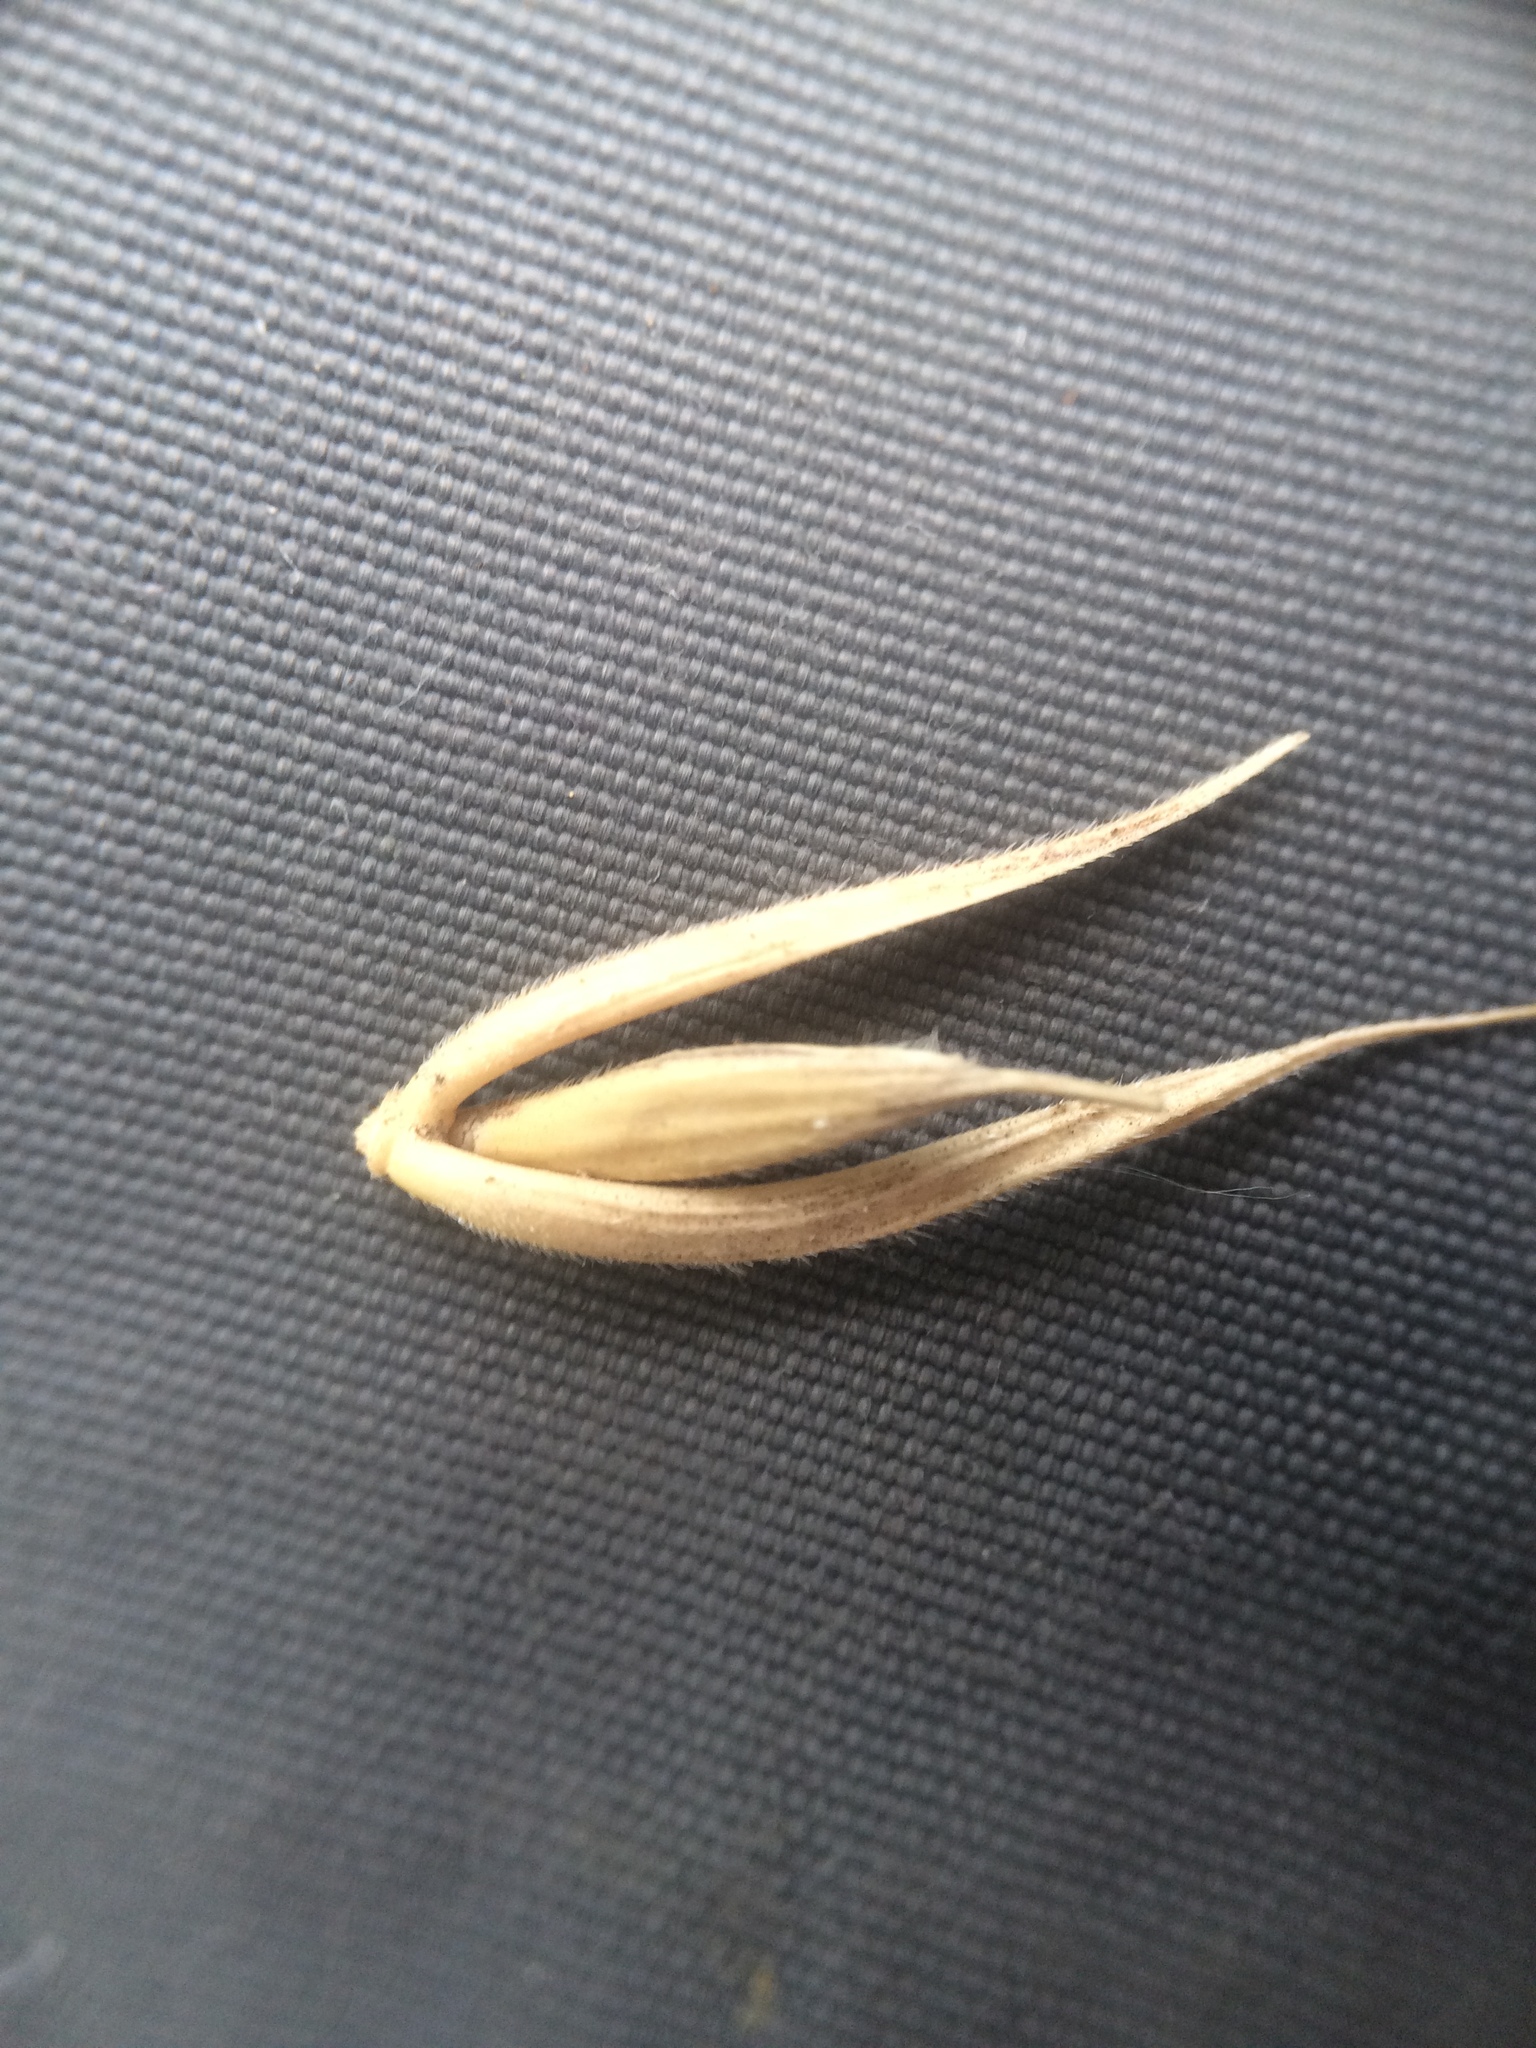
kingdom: Plantae
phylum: Tracheophyta
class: Liliopsida
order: Poales
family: Poaceae
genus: Elymus
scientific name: Elymus virginicus
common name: Common eastern wildrye
